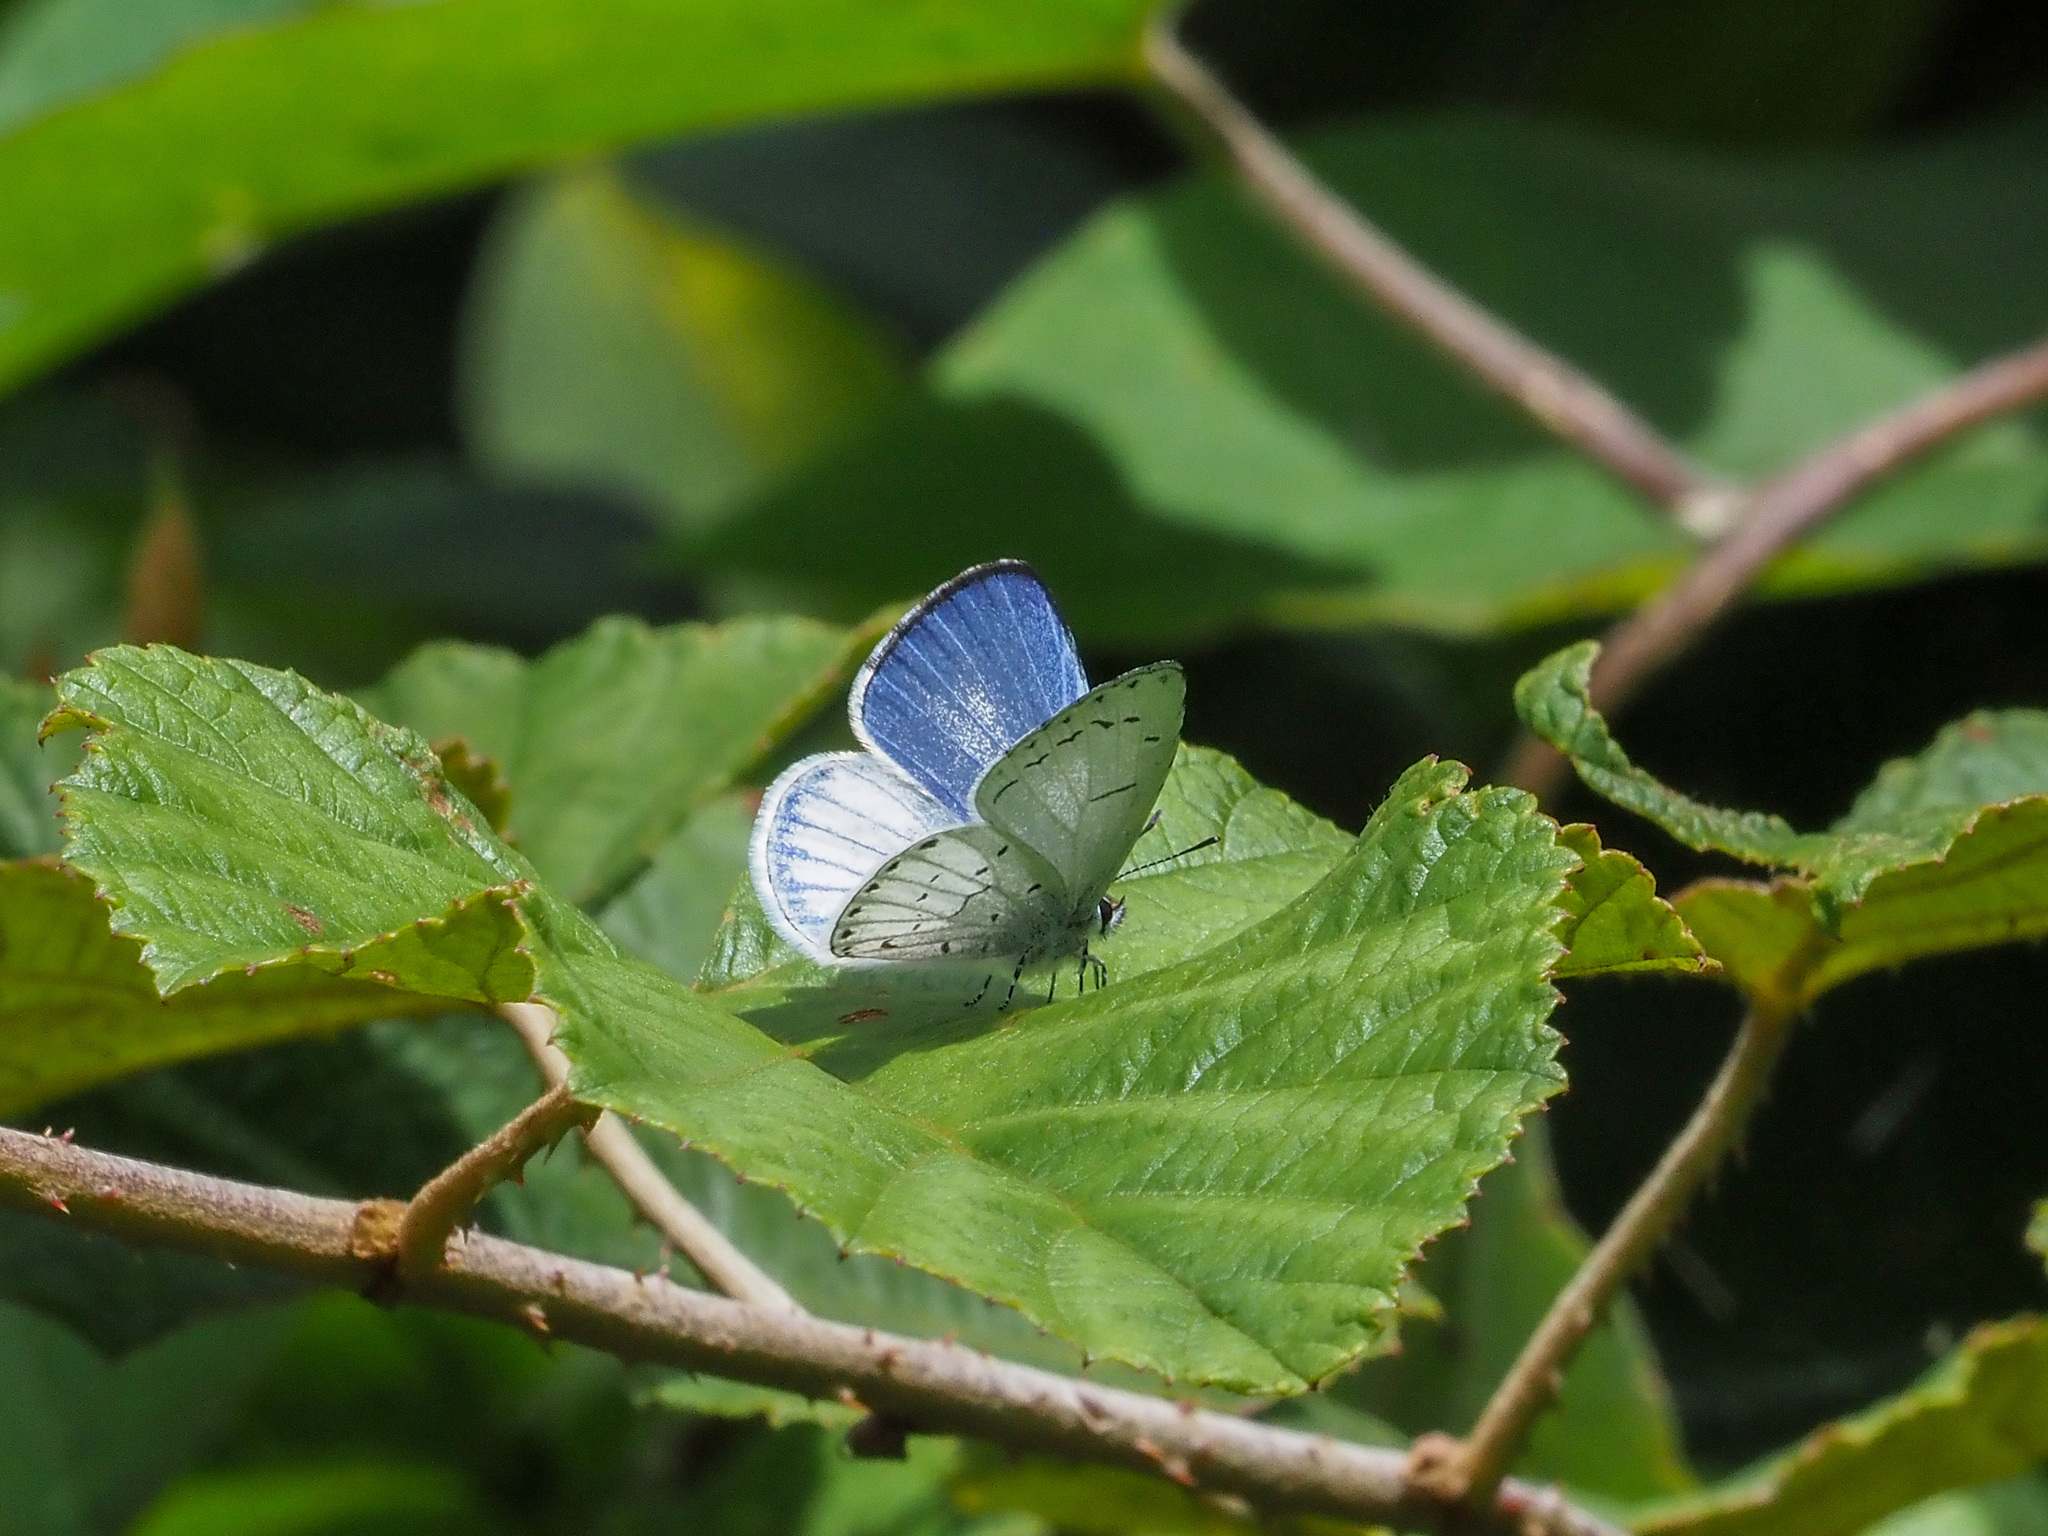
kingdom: Animalia
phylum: Arthropoda
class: Insecta
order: Lepidoptera
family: Lycaenidae
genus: Udara
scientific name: Udara
